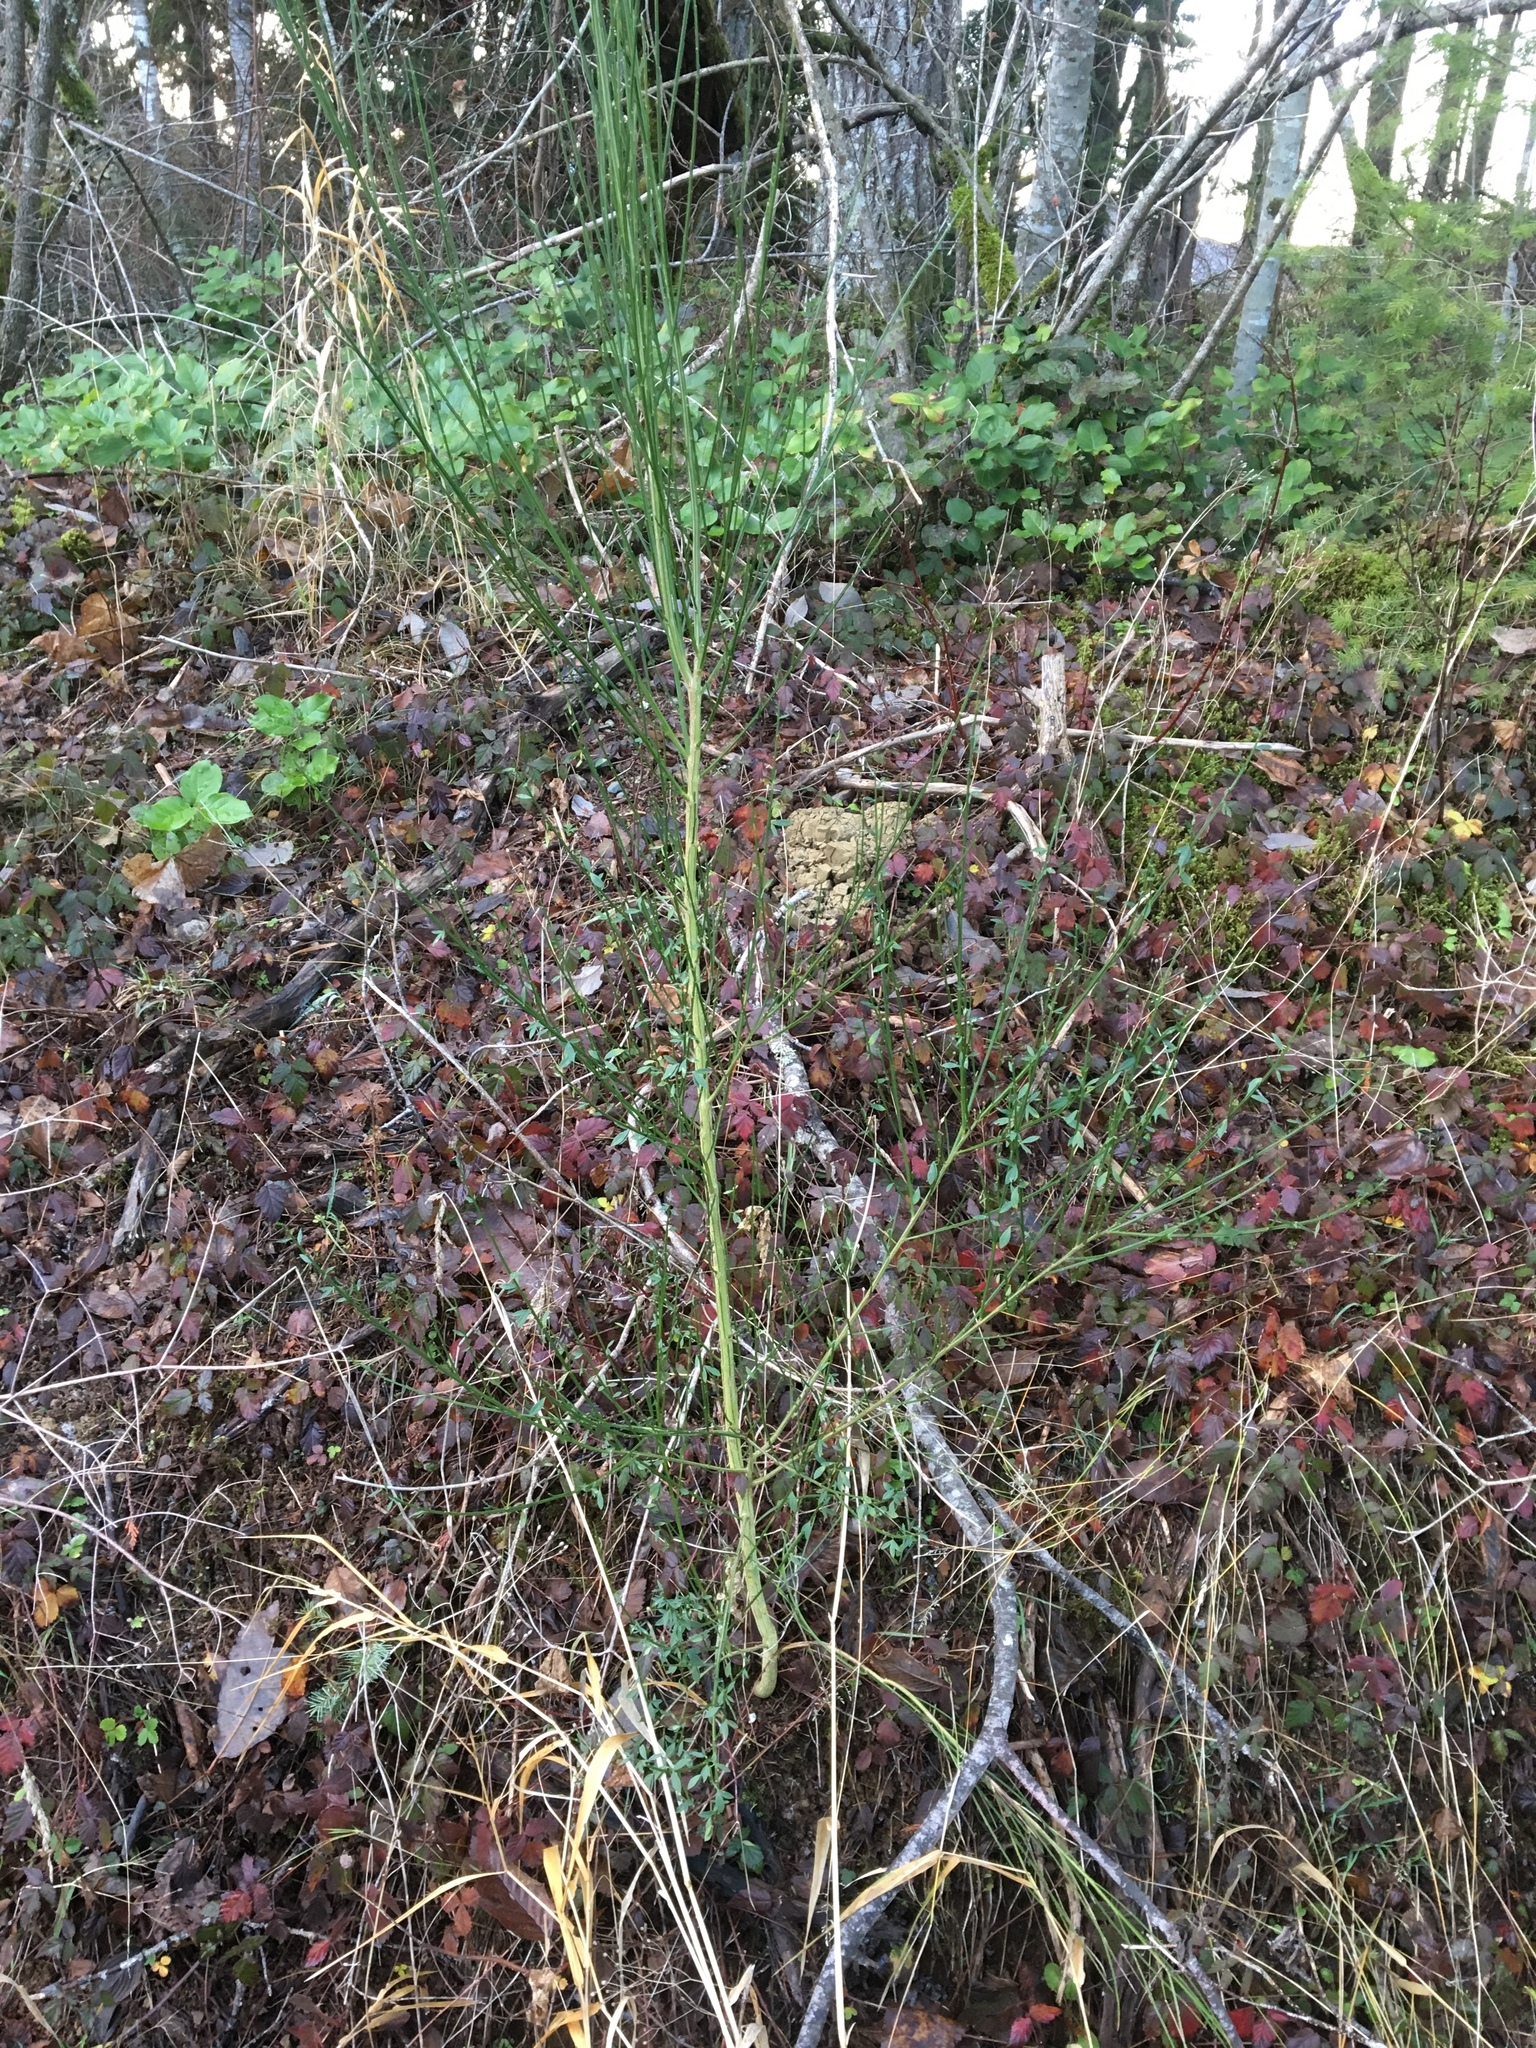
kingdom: Plantae
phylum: Tracheophyta
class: Magnoliopsida
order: Fabales
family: Fabaceae
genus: Cytisus
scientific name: Cytisus scoparius
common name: Scotch broom
